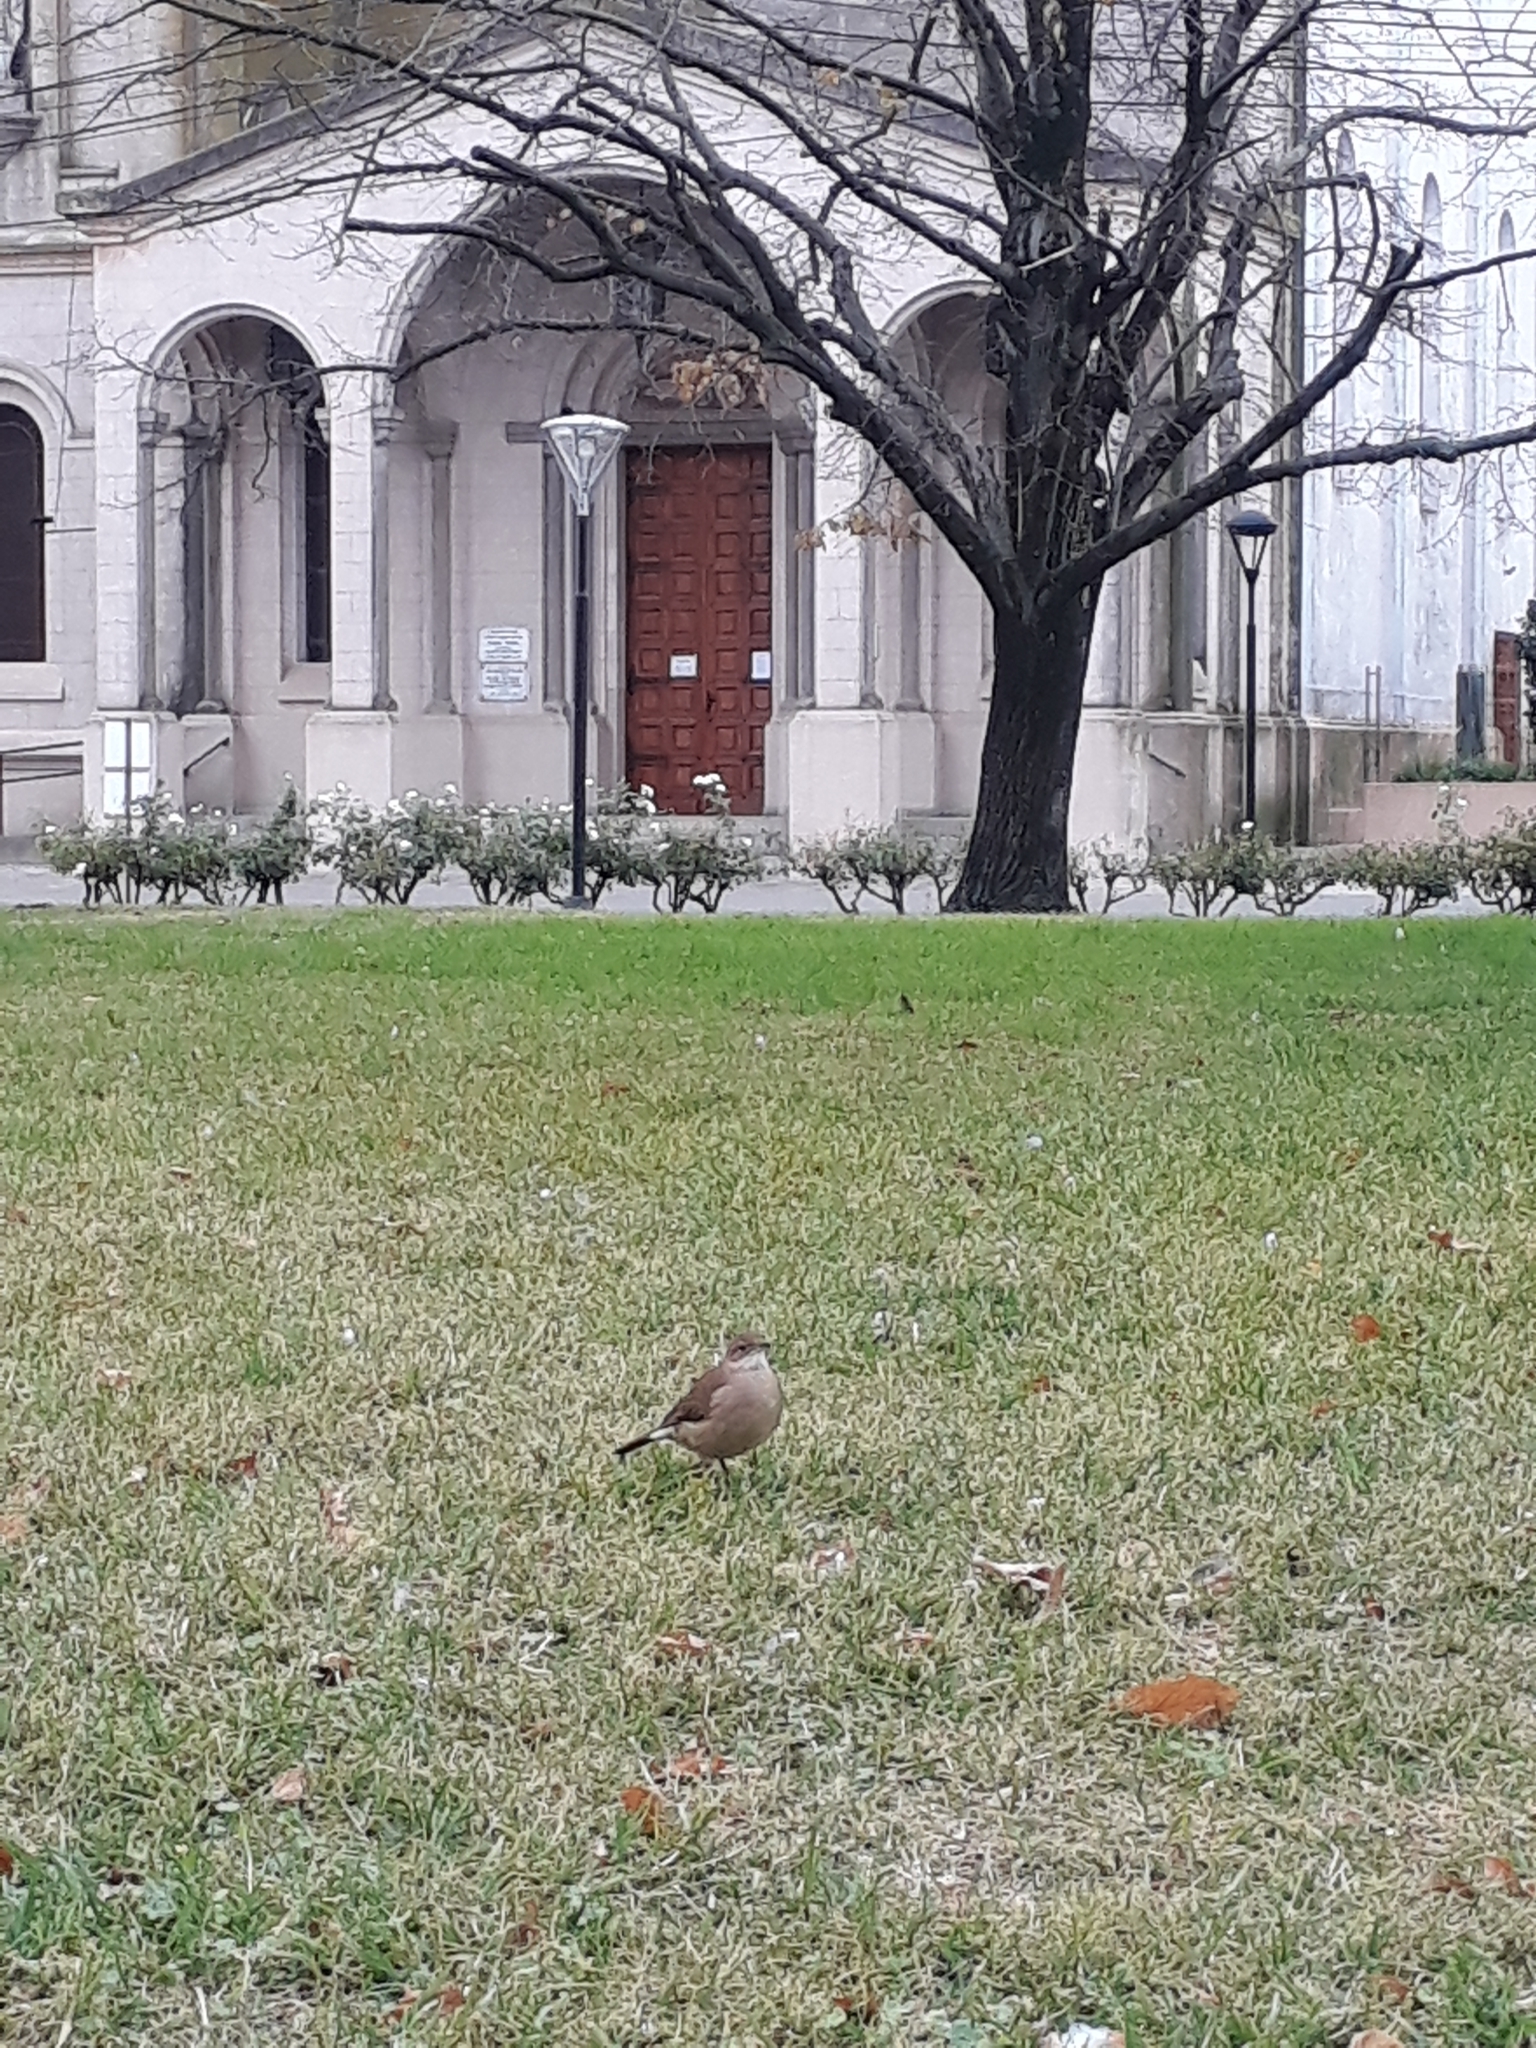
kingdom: Animalia
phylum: Chordata
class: Aves
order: Passeriformes
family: Furnariidae
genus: Furnarius
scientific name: Furnarius rufus
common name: Rufous hornero
